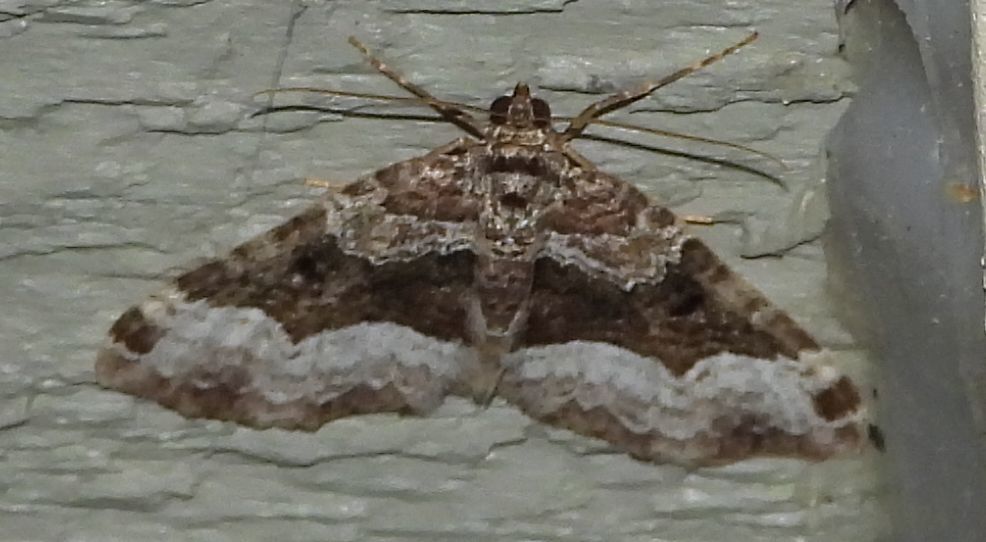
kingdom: Animalia
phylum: Arthropoda
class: Insecta
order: Lepidoptera
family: Geometridae
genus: Euphyia
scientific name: Euphyia intermediata
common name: Sharp-angled carpet
